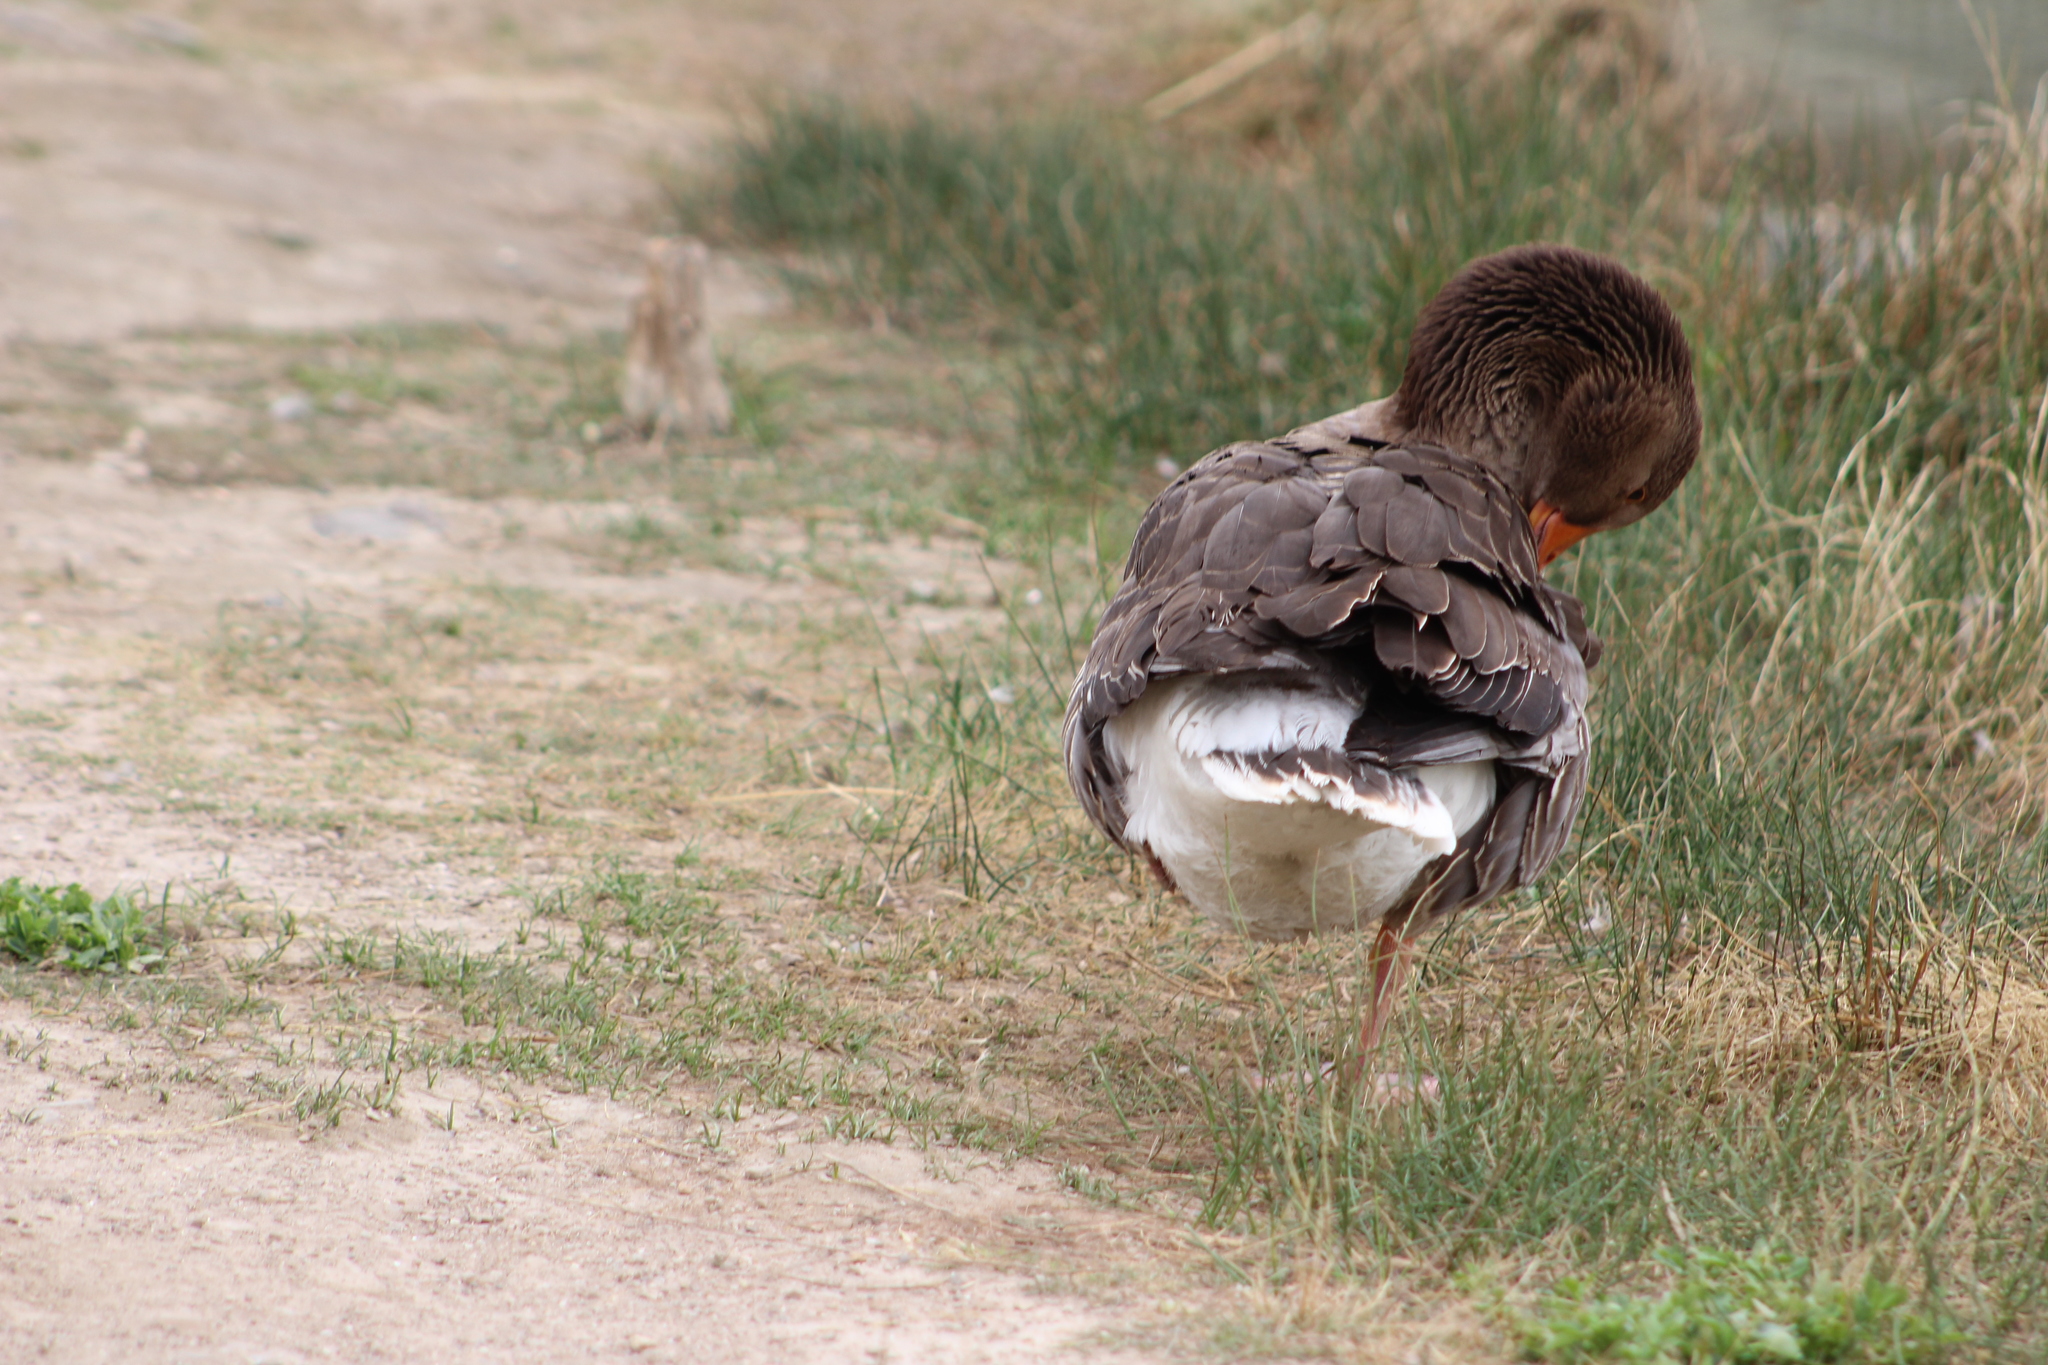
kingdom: Animalia
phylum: Chordata
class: Aves
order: Anseriformes
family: Anatidae
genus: Anser
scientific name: Anser anser
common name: Greylag goose
